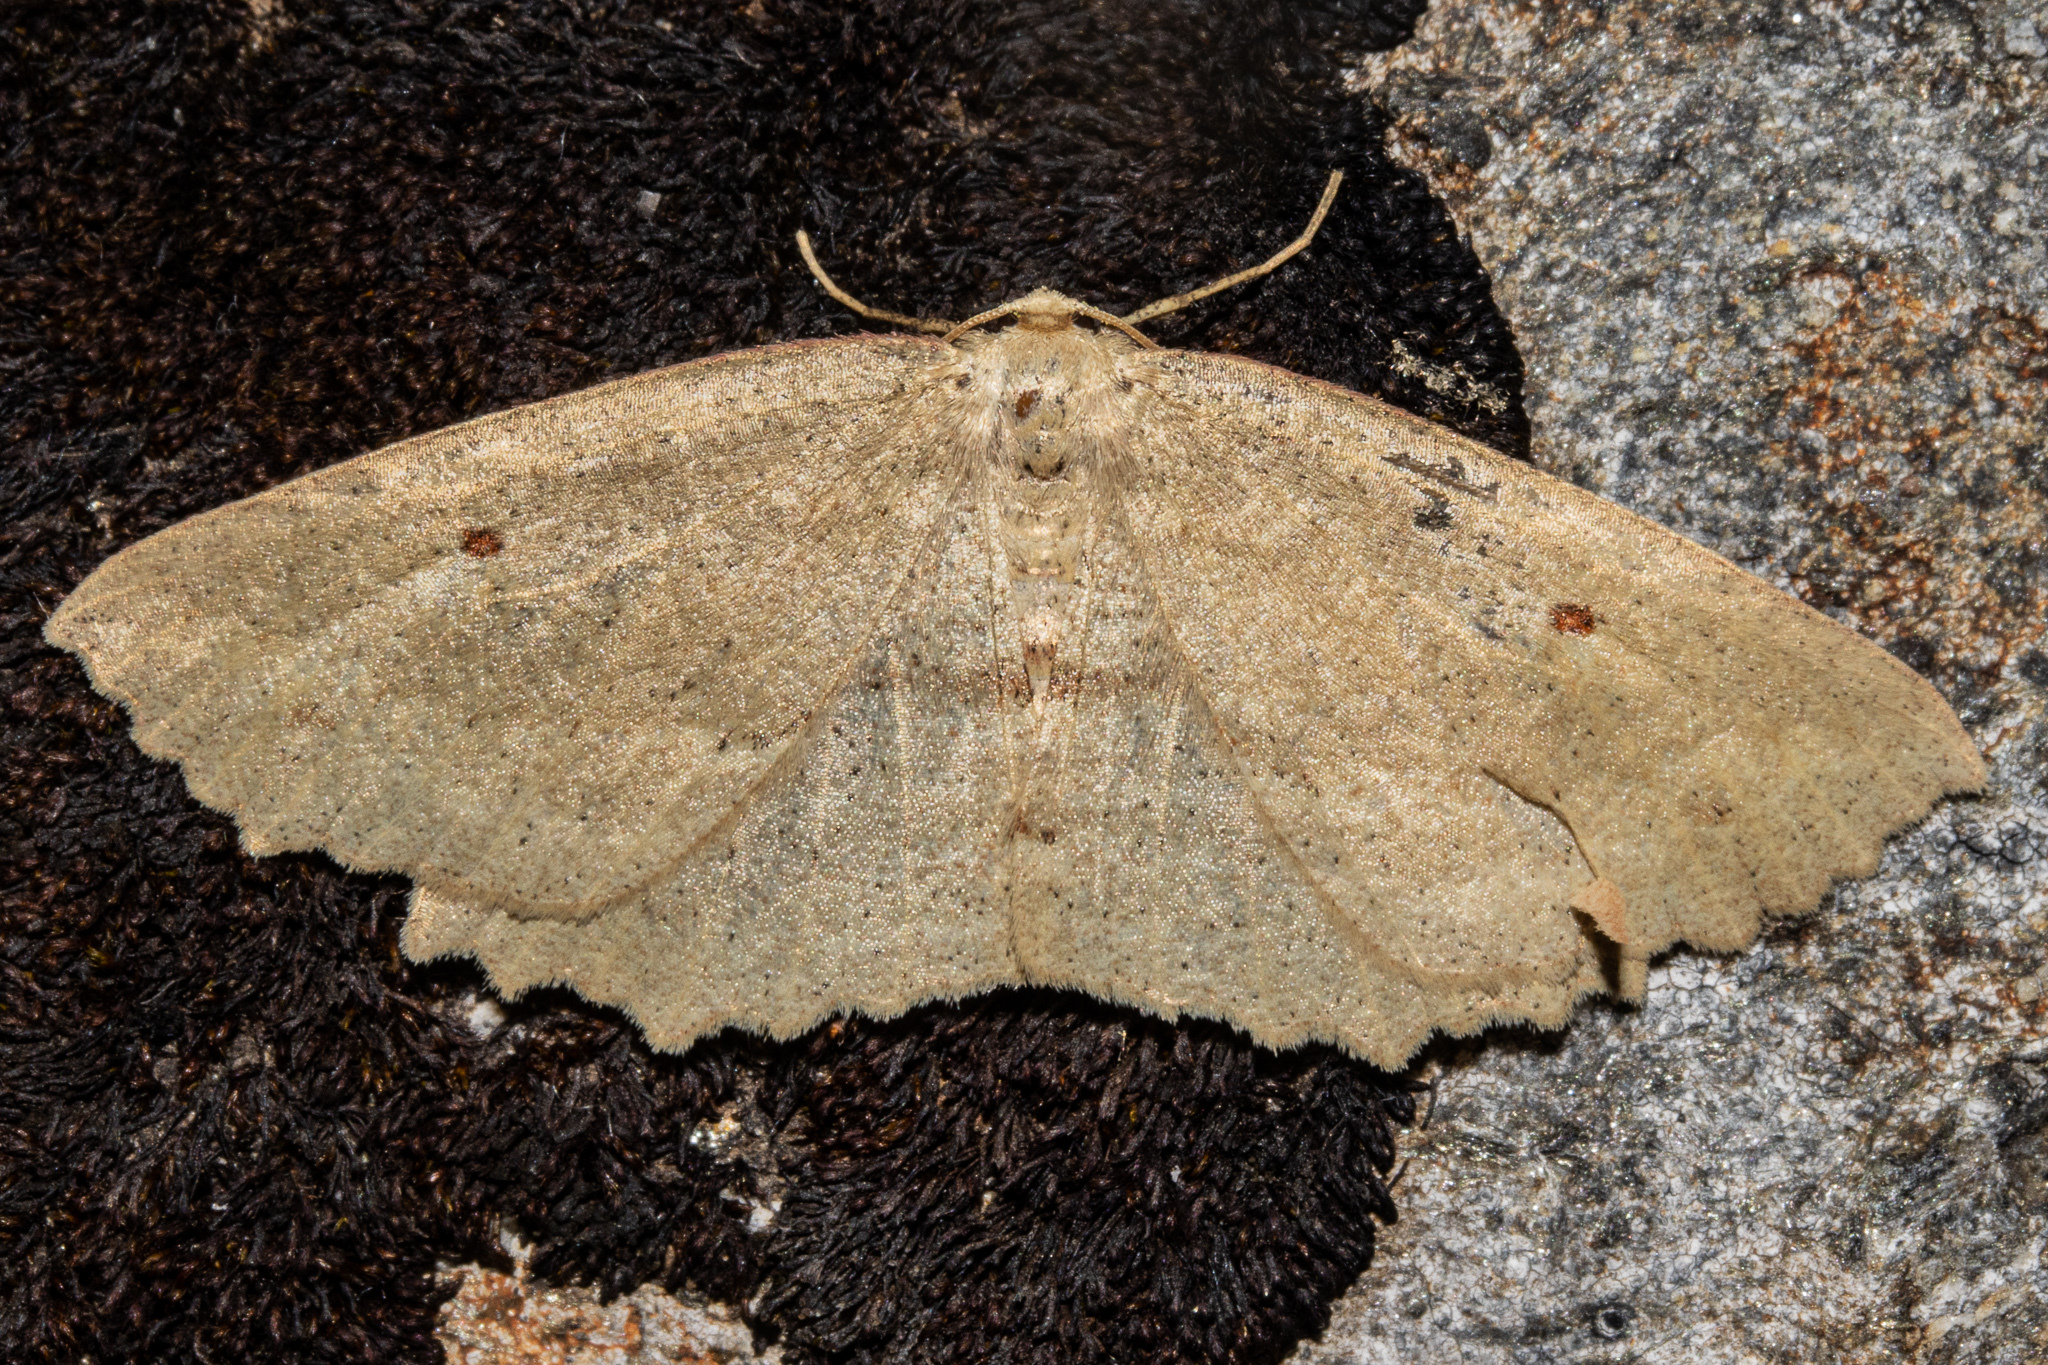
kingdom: Animalia
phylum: Arthropoda
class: Insecta
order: Lepidoptera
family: Geometridae
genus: Xyridacma
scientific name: Xyridacma veronicae
